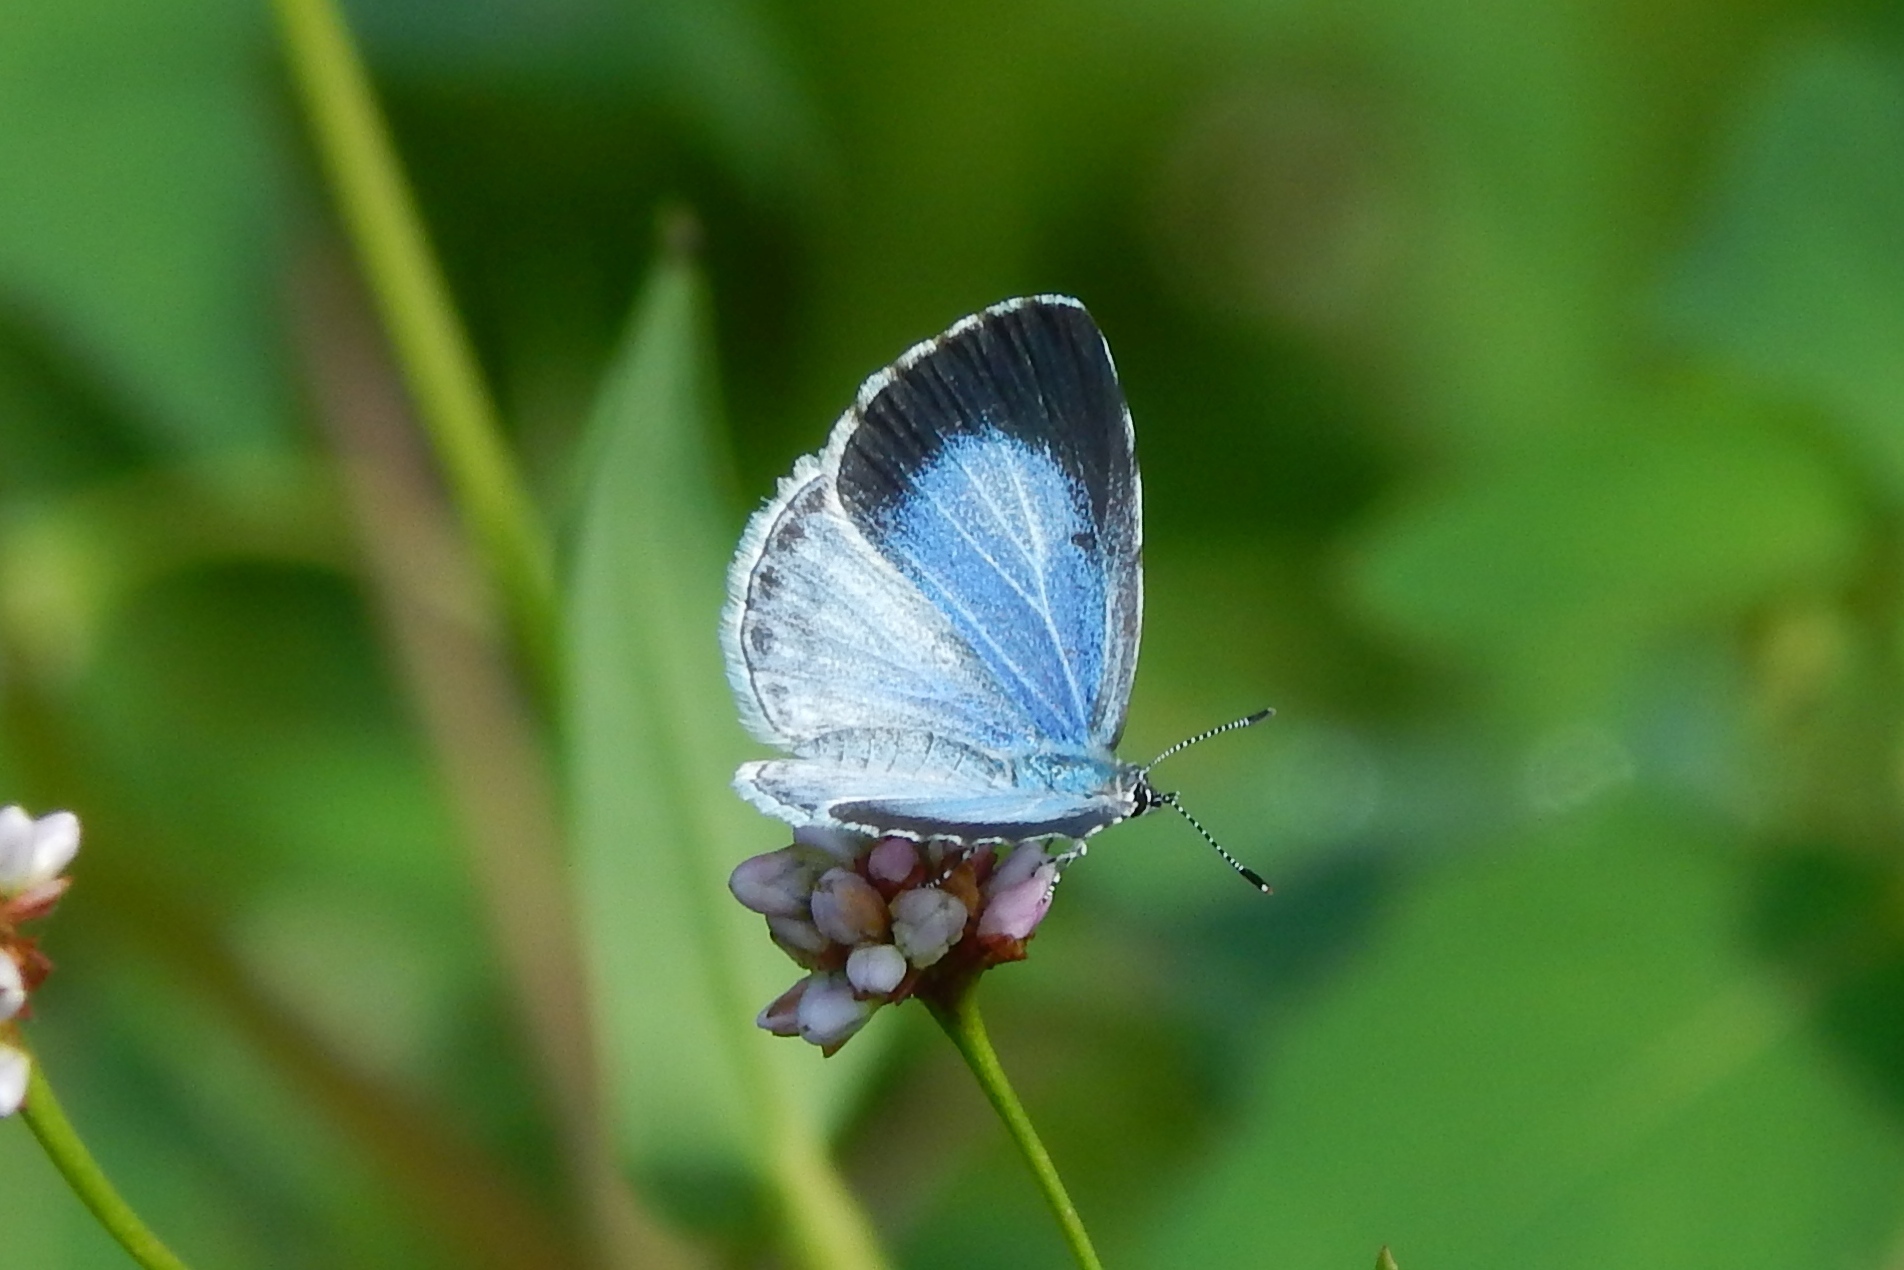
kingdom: Animalia
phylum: Arthropoda
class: Insecta
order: Lepidoptera
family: Lycaenidae
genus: Cyaniris
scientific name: Cyaniris neglecta
